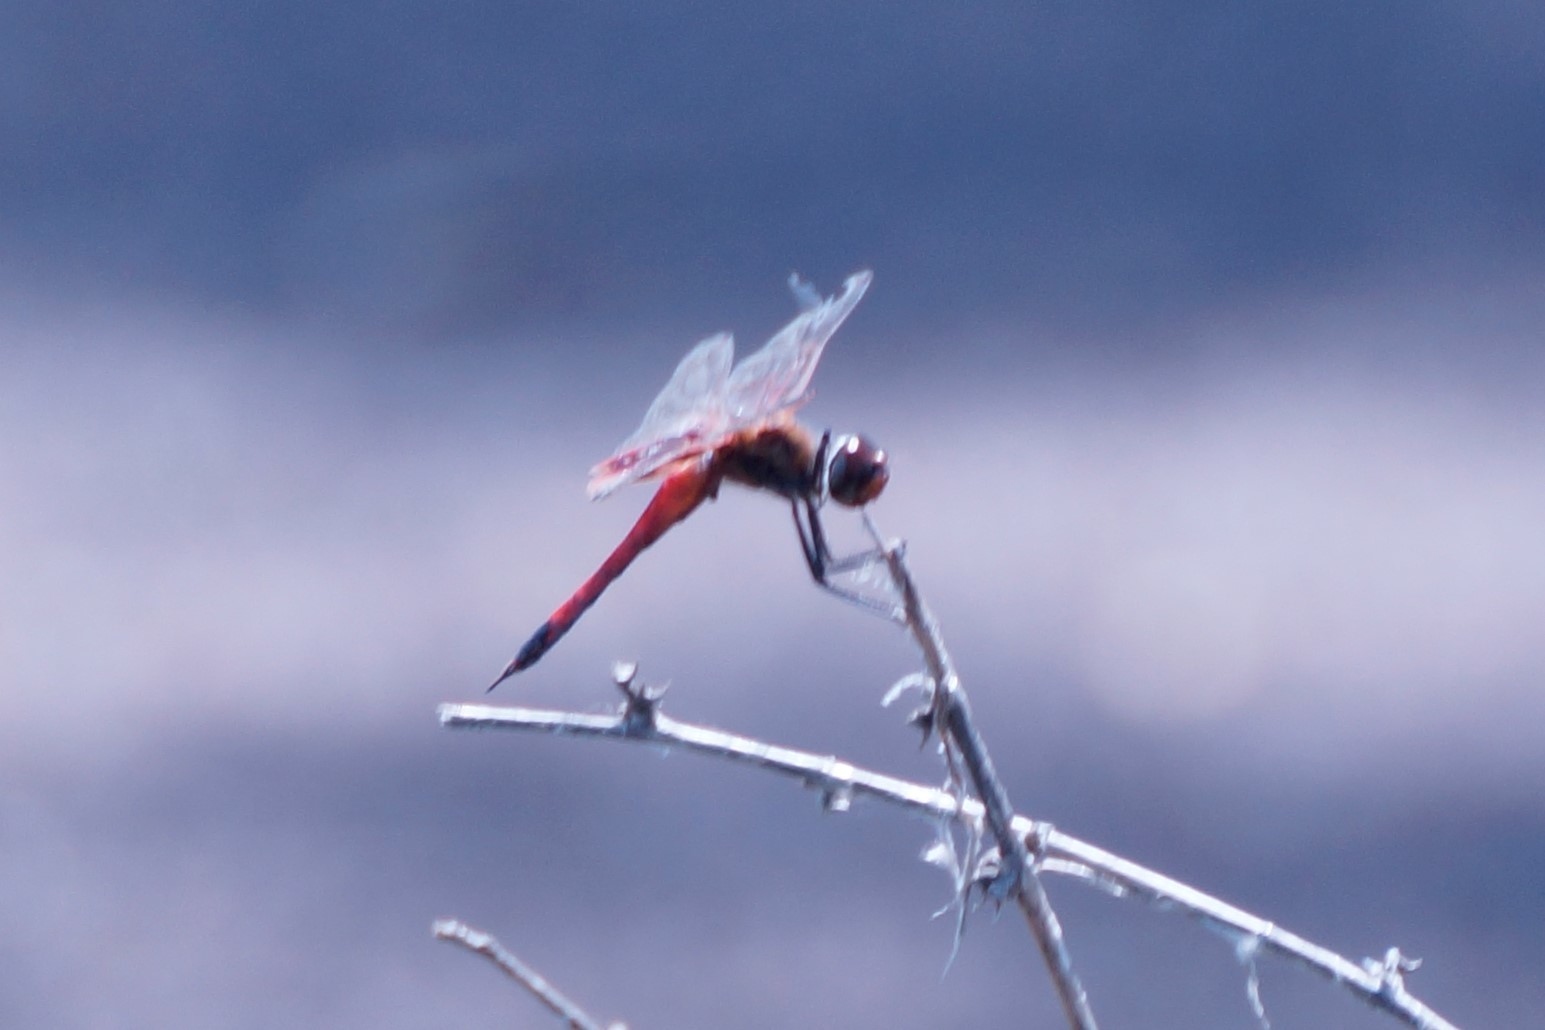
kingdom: Animalia
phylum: Arthropoda
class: Insecta
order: Odonata
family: Libellulidae
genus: Tramea
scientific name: Tramea loewii
